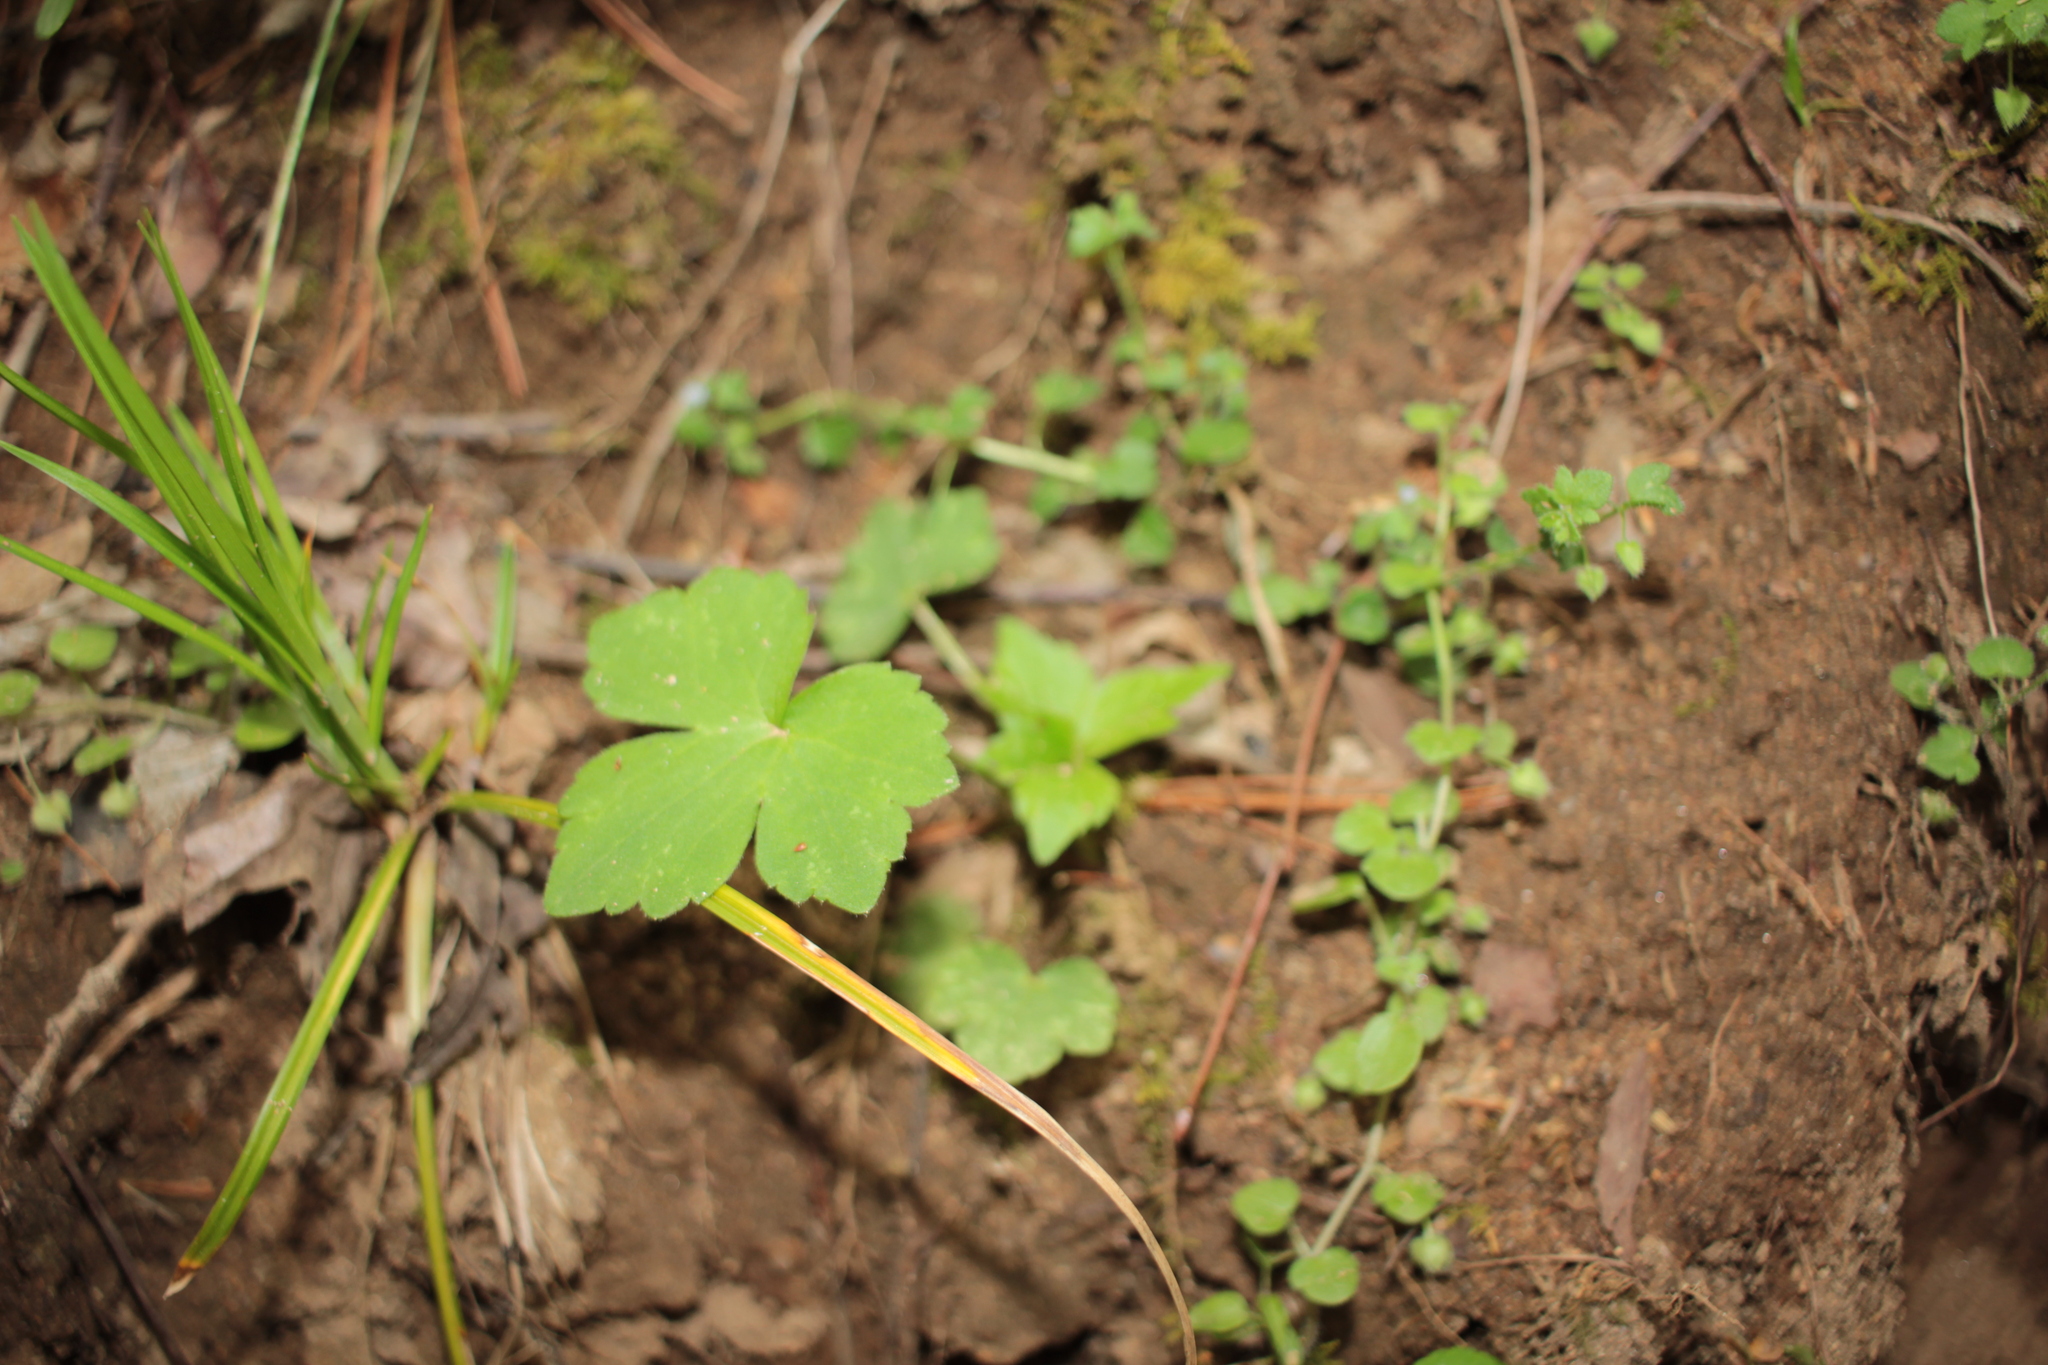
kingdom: Plantae
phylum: Tracheophyta
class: Magnoliopsida
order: Ranunculales
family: Ranunculaceae
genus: Ranunculus
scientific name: Ranunculus recurvatus
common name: Blisterwort
